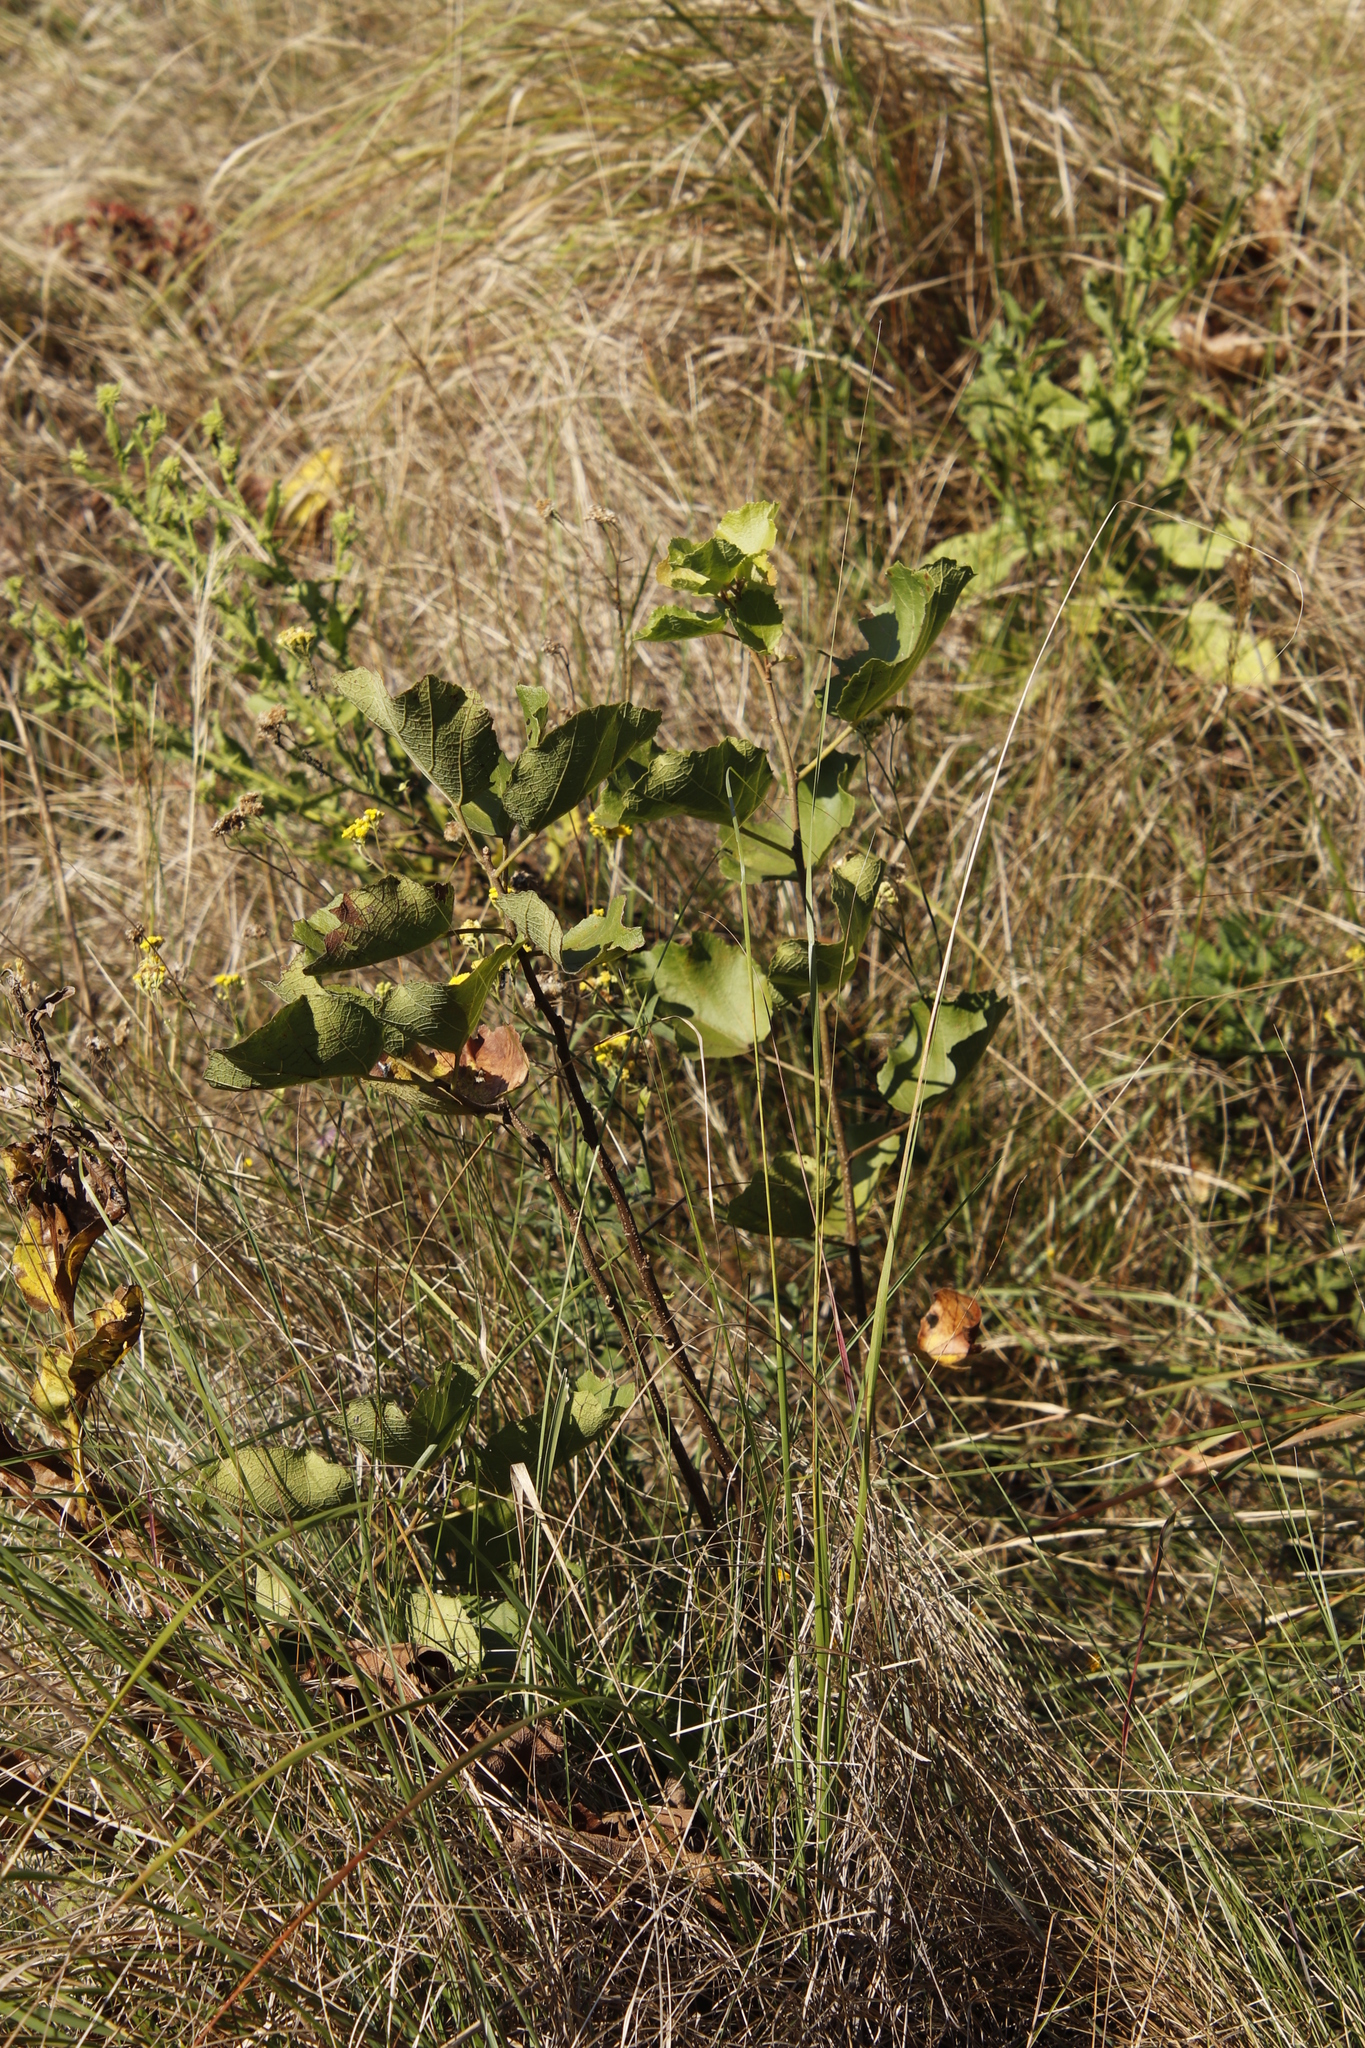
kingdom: Plantae
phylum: Tracheophyta
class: Magnoliopsida
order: Malvales
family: Malvaceae
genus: Dombeya
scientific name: Dombeya rotundifolia
